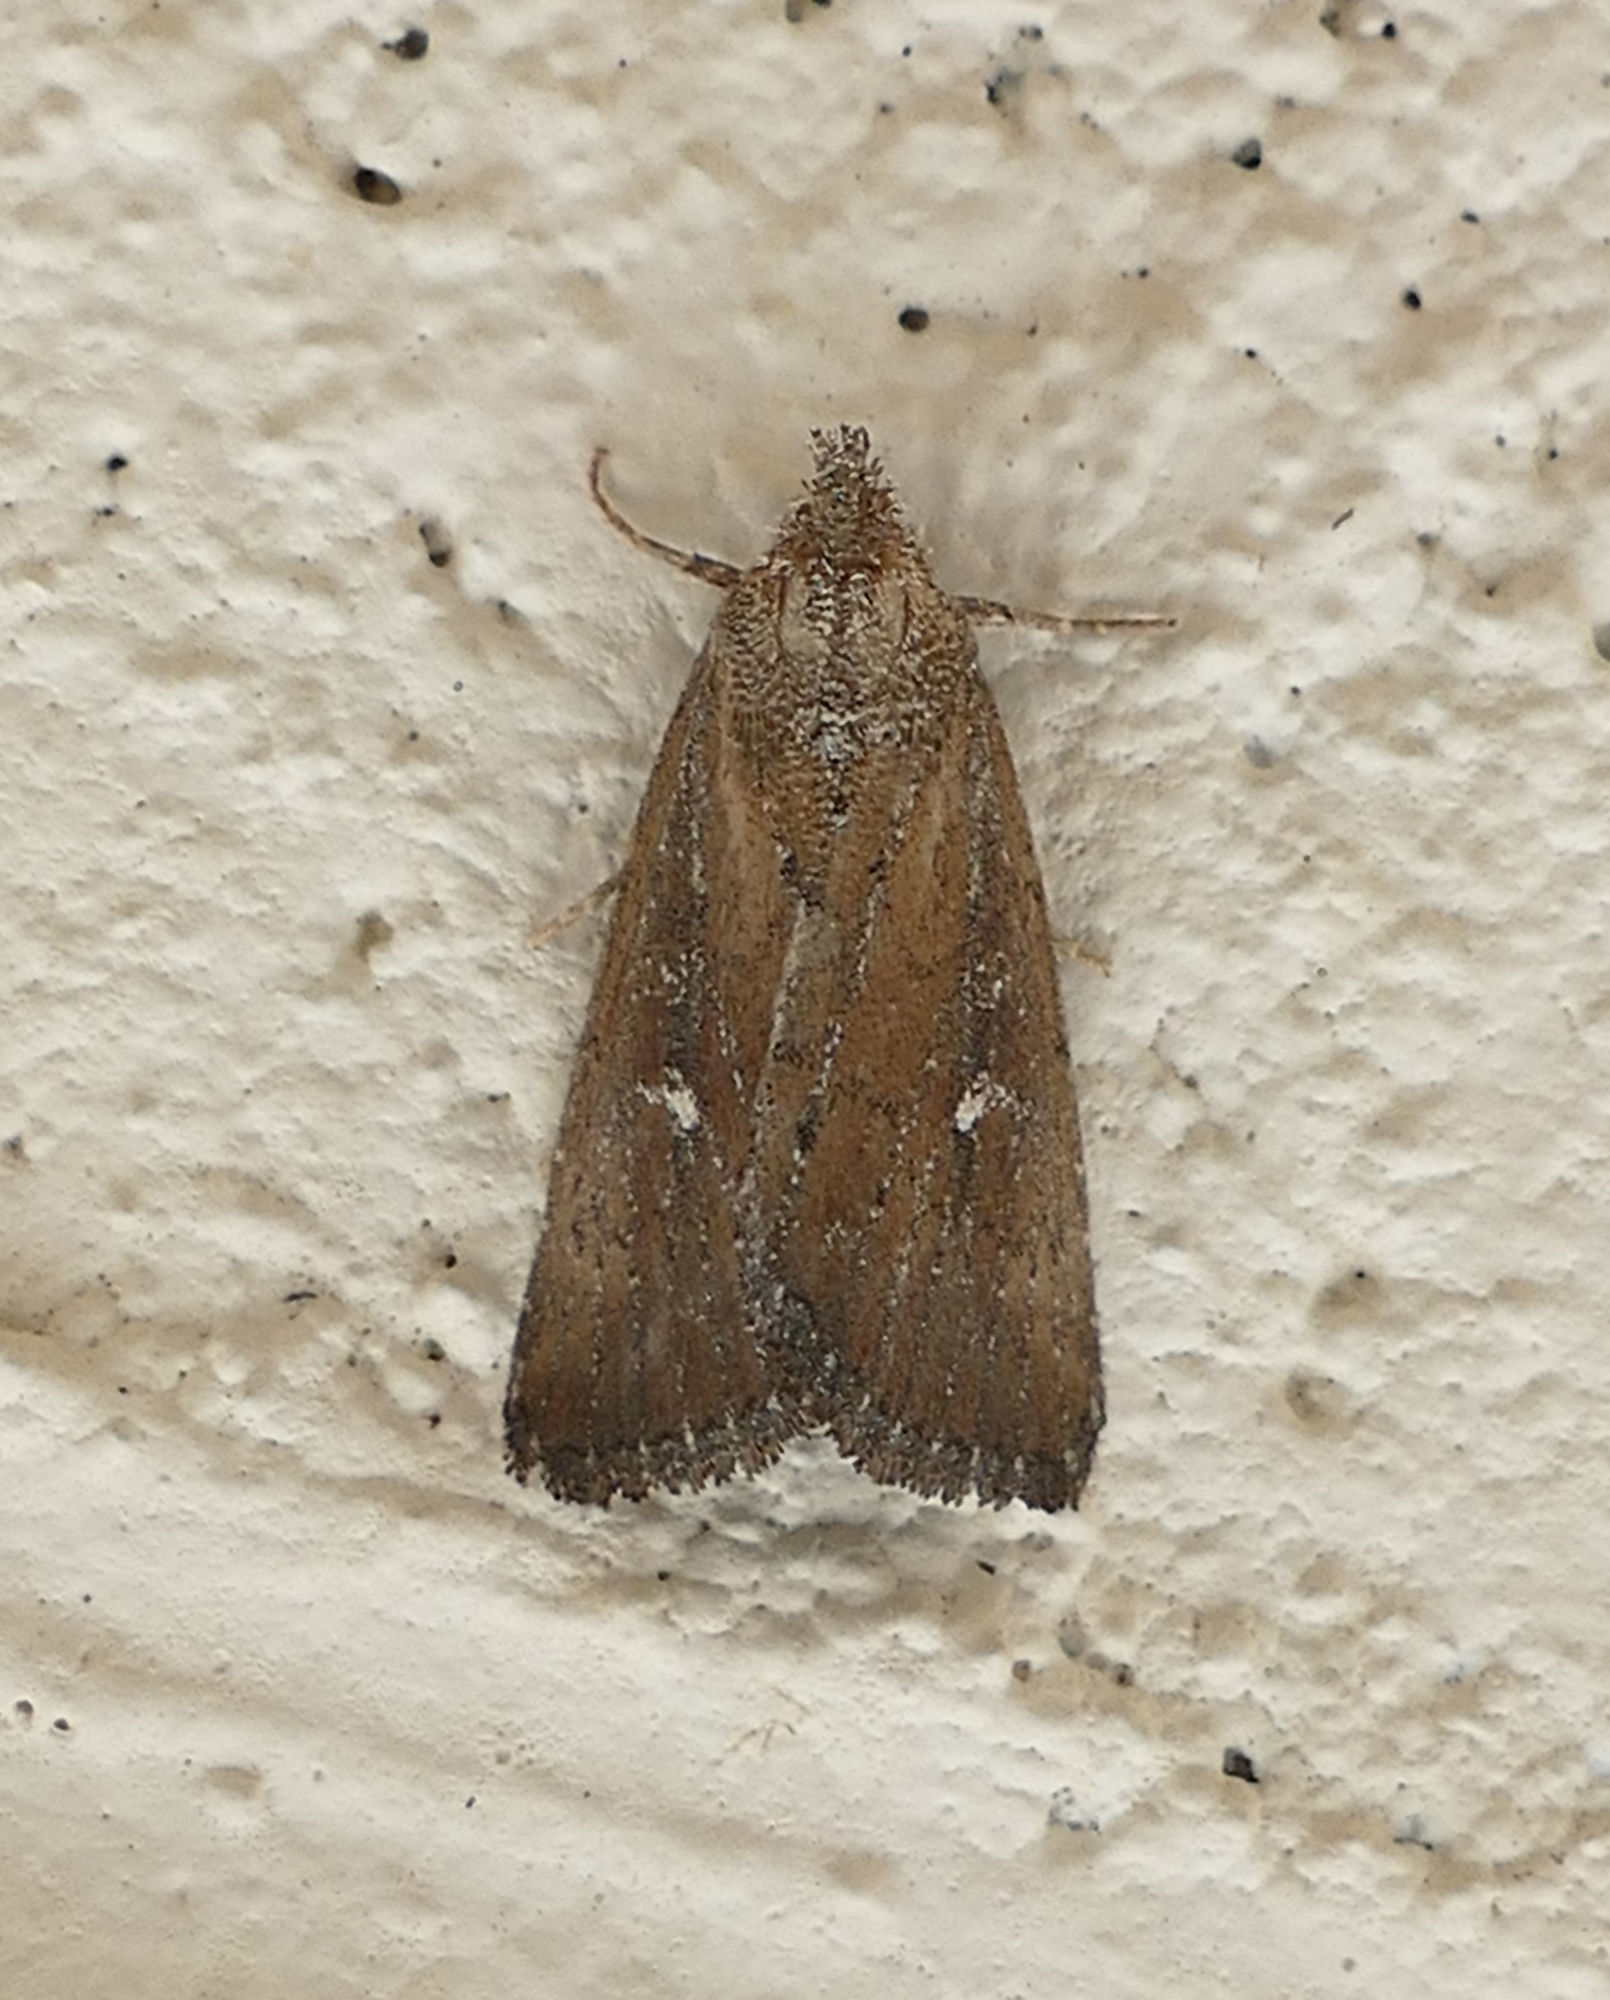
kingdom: Animalia
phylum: Arthropoda
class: Insecta
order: Lepidoptera
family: Noctuidae
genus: Condica
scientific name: Condica videns
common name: White-dotted groundling
